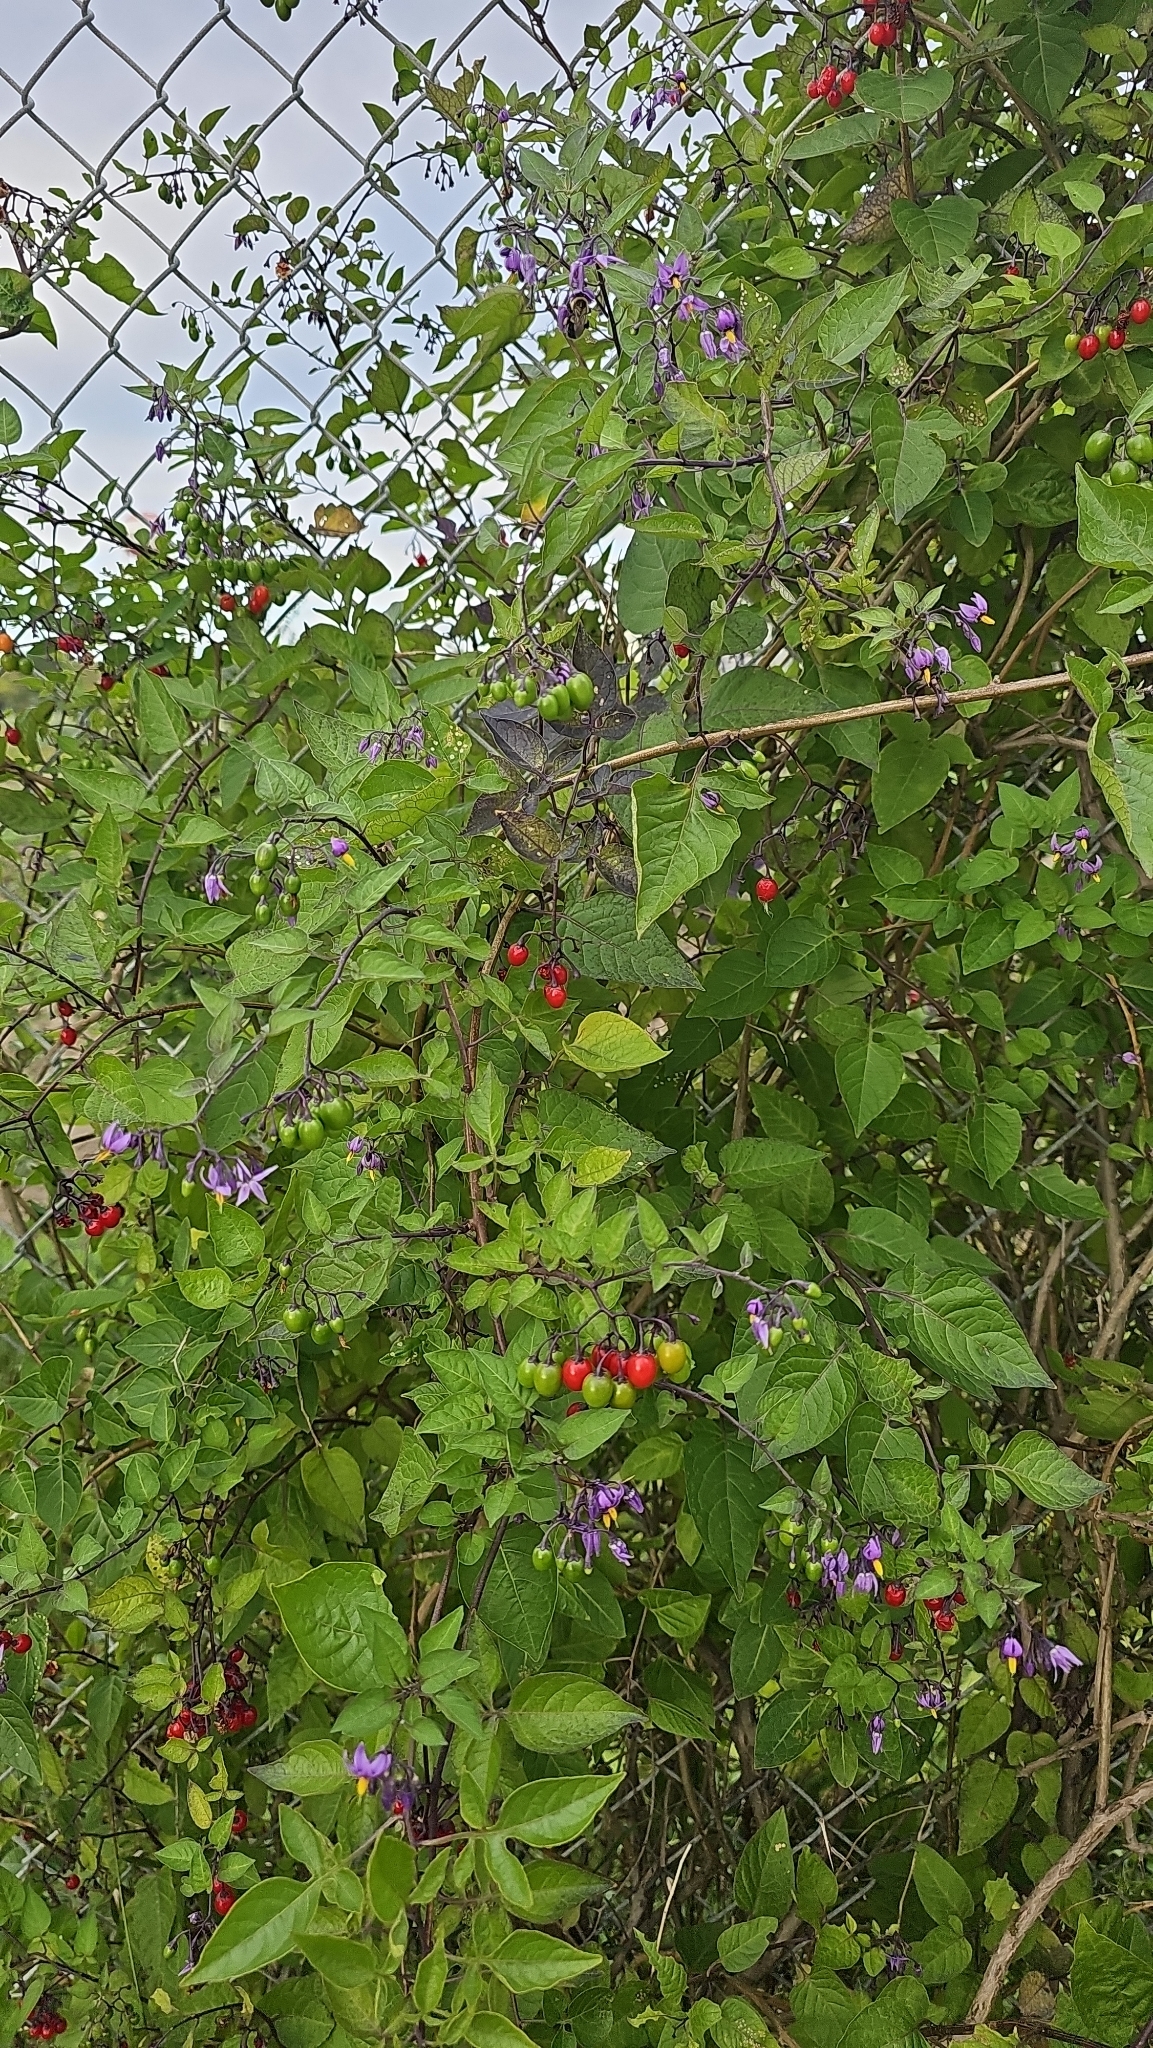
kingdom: Plantae
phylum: Tracheophyta
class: Magnoliopsida
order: Solanales
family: Solanaceae
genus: Solanum
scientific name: Solanum dulcamara
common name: Climbing nightshade
